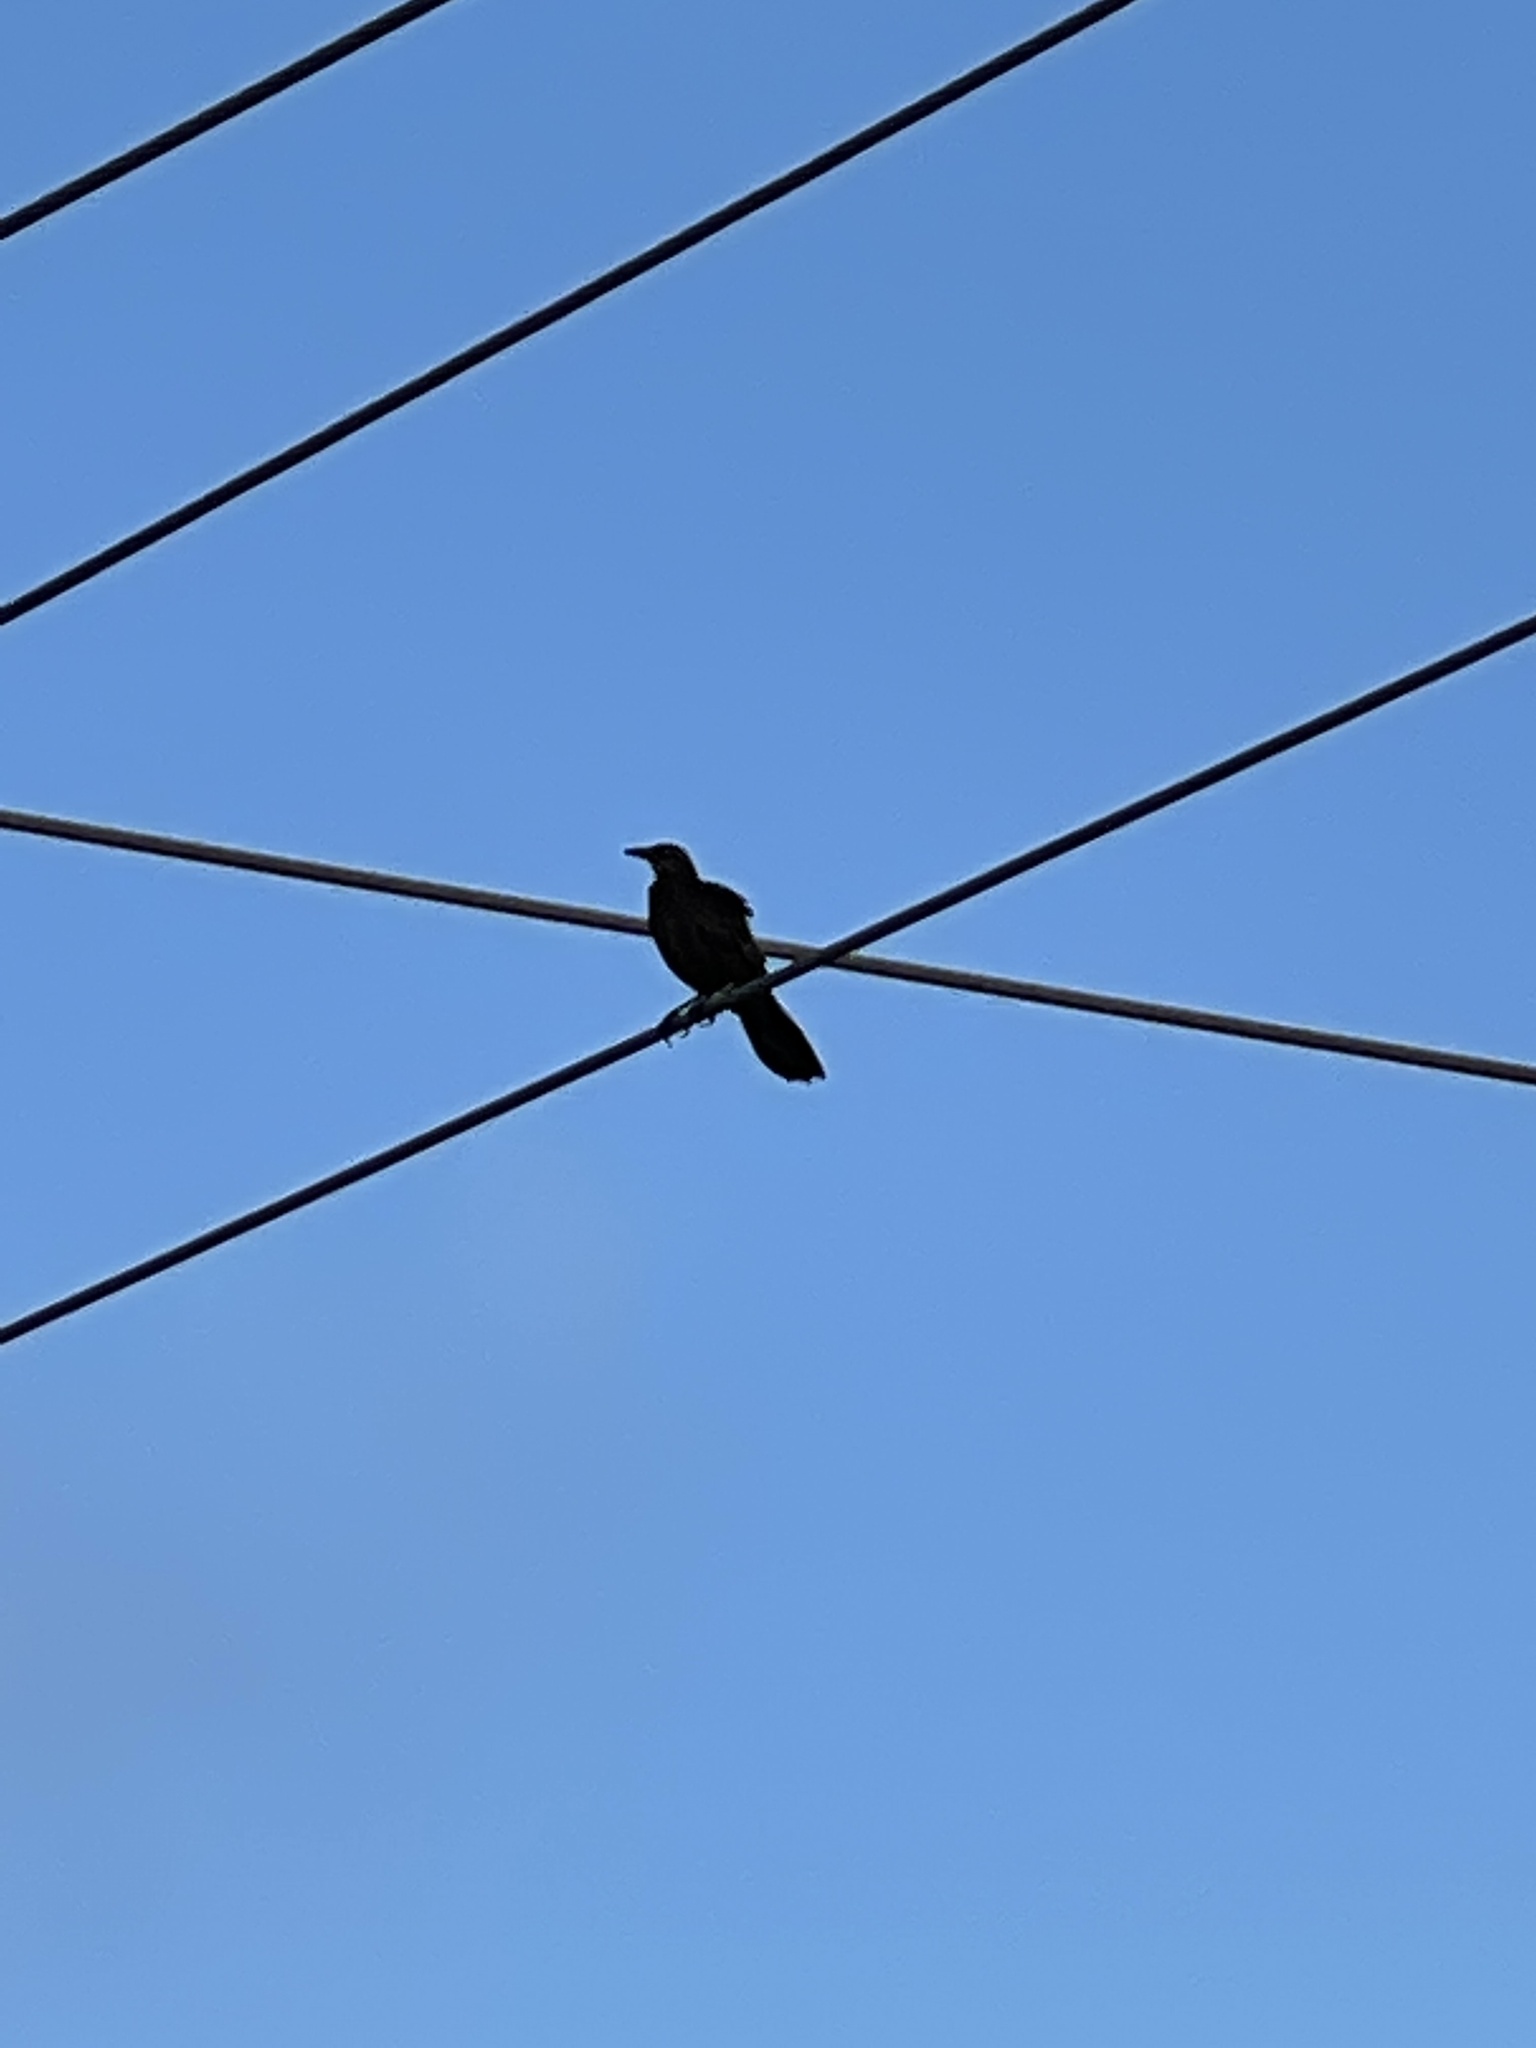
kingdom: Animalia
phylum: Chordata
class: Aves
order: Passeriformes
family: Icteridae
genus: Quiscalus
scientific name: Quiscalus mexicanus
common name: Great-tailed grackle
